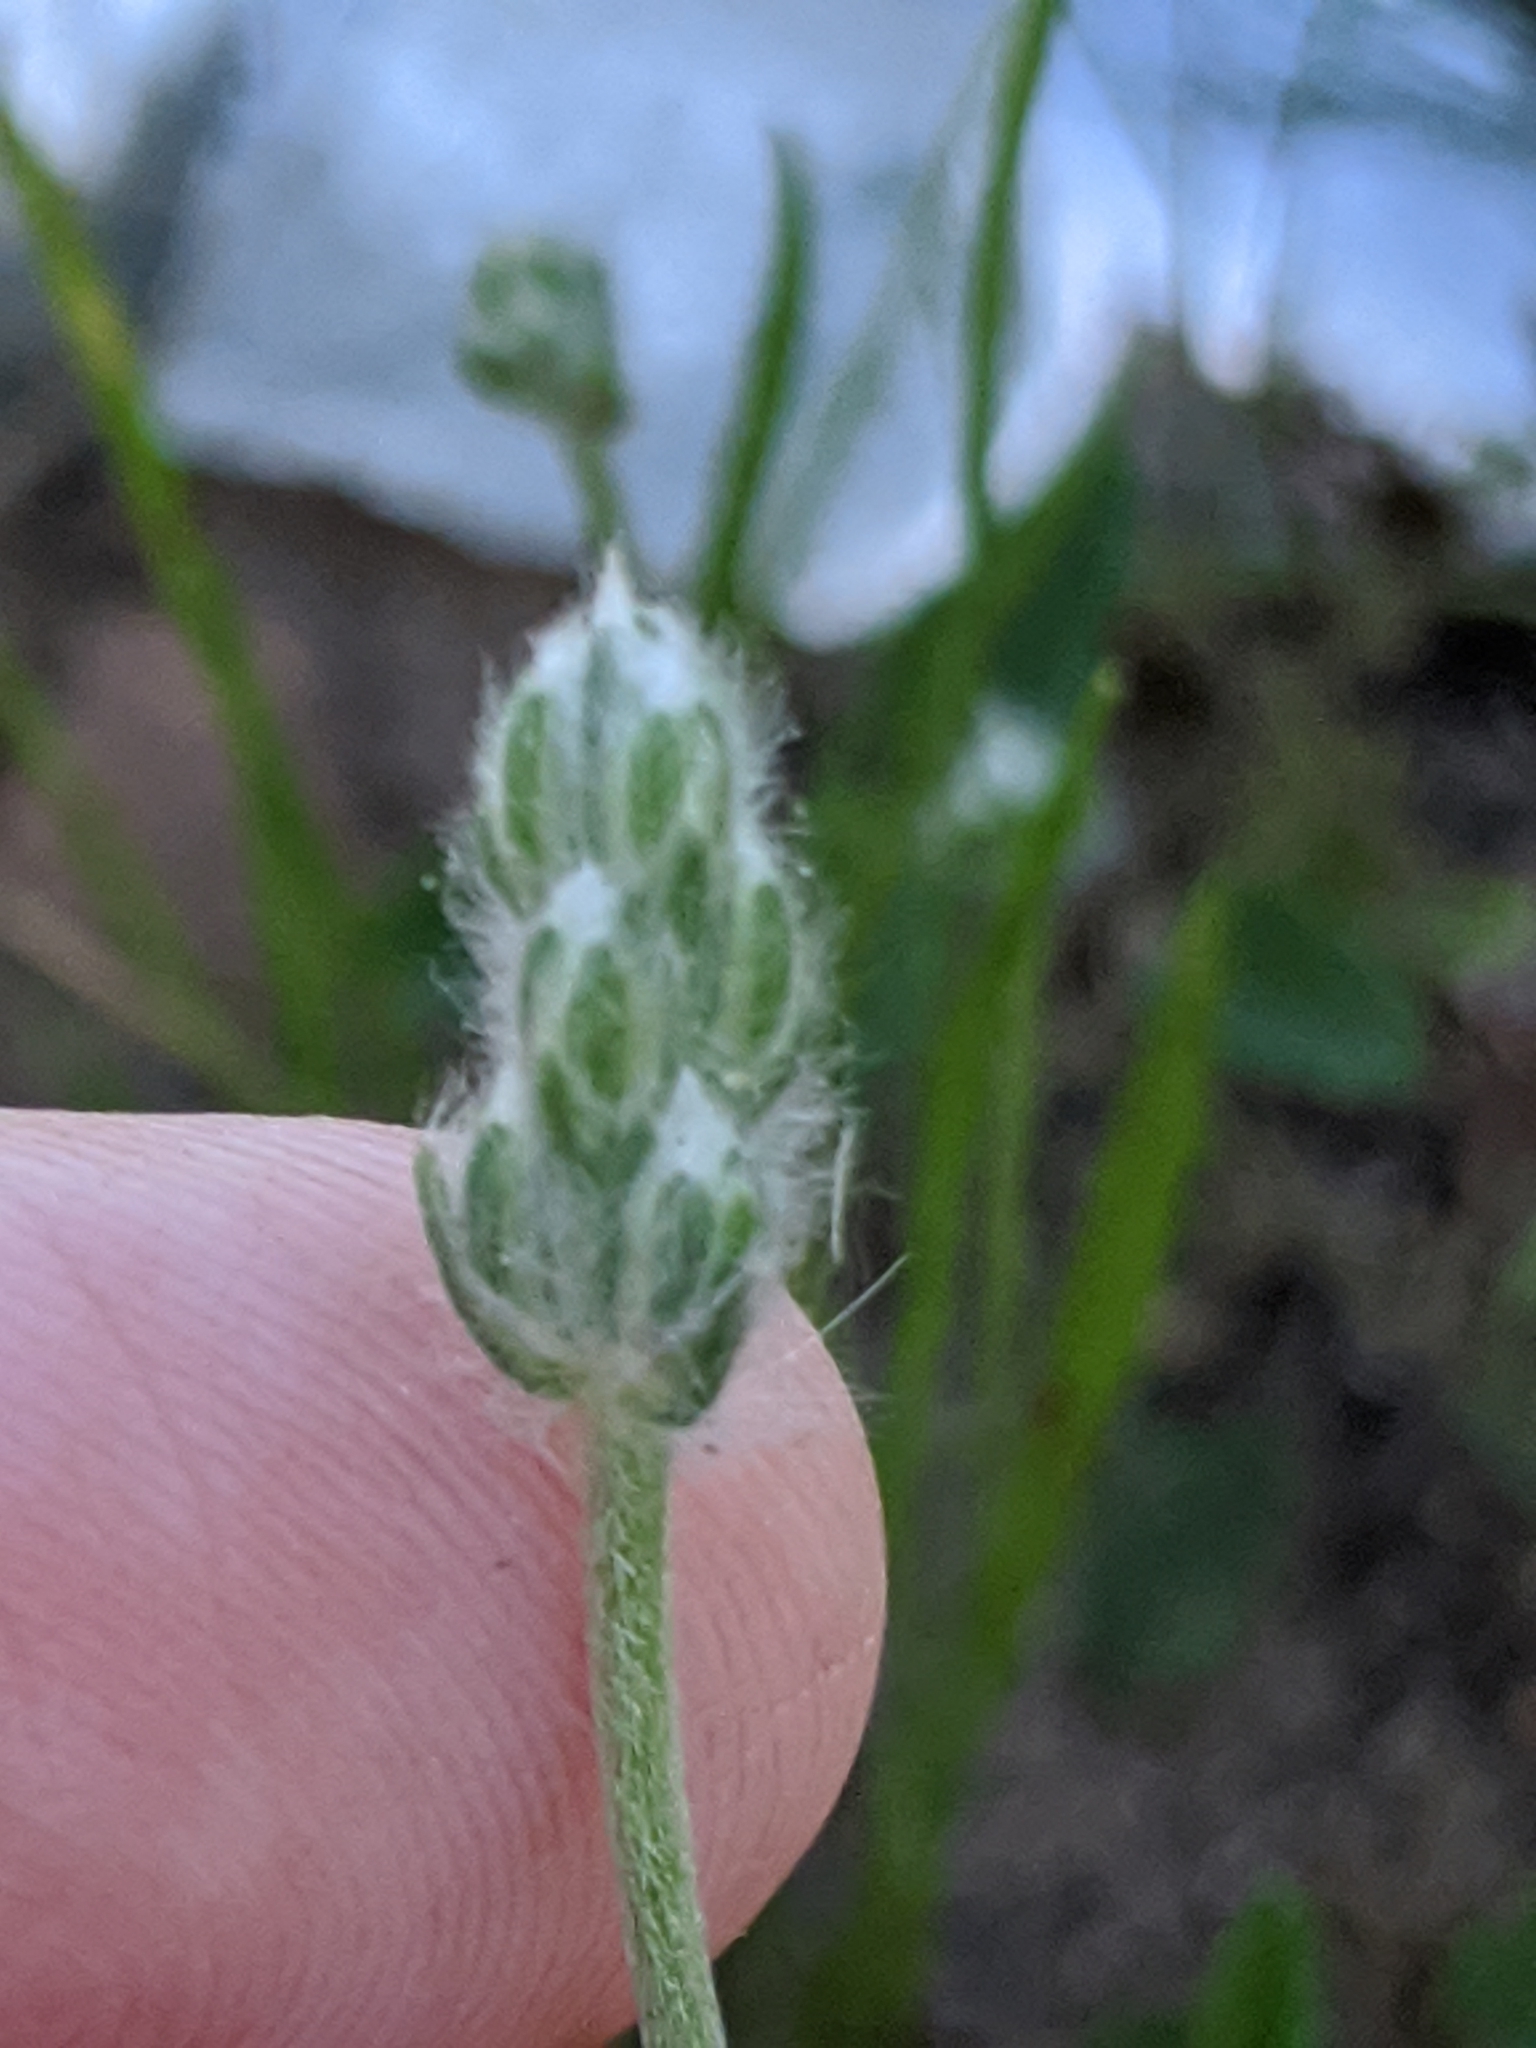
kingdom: Plantae
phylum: Tracheophyta
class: Magnoliopsida
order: Lamiales
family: Plantaginaceae
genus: Plantago
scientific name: Plantago wrightiana
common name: Wright's plantain
